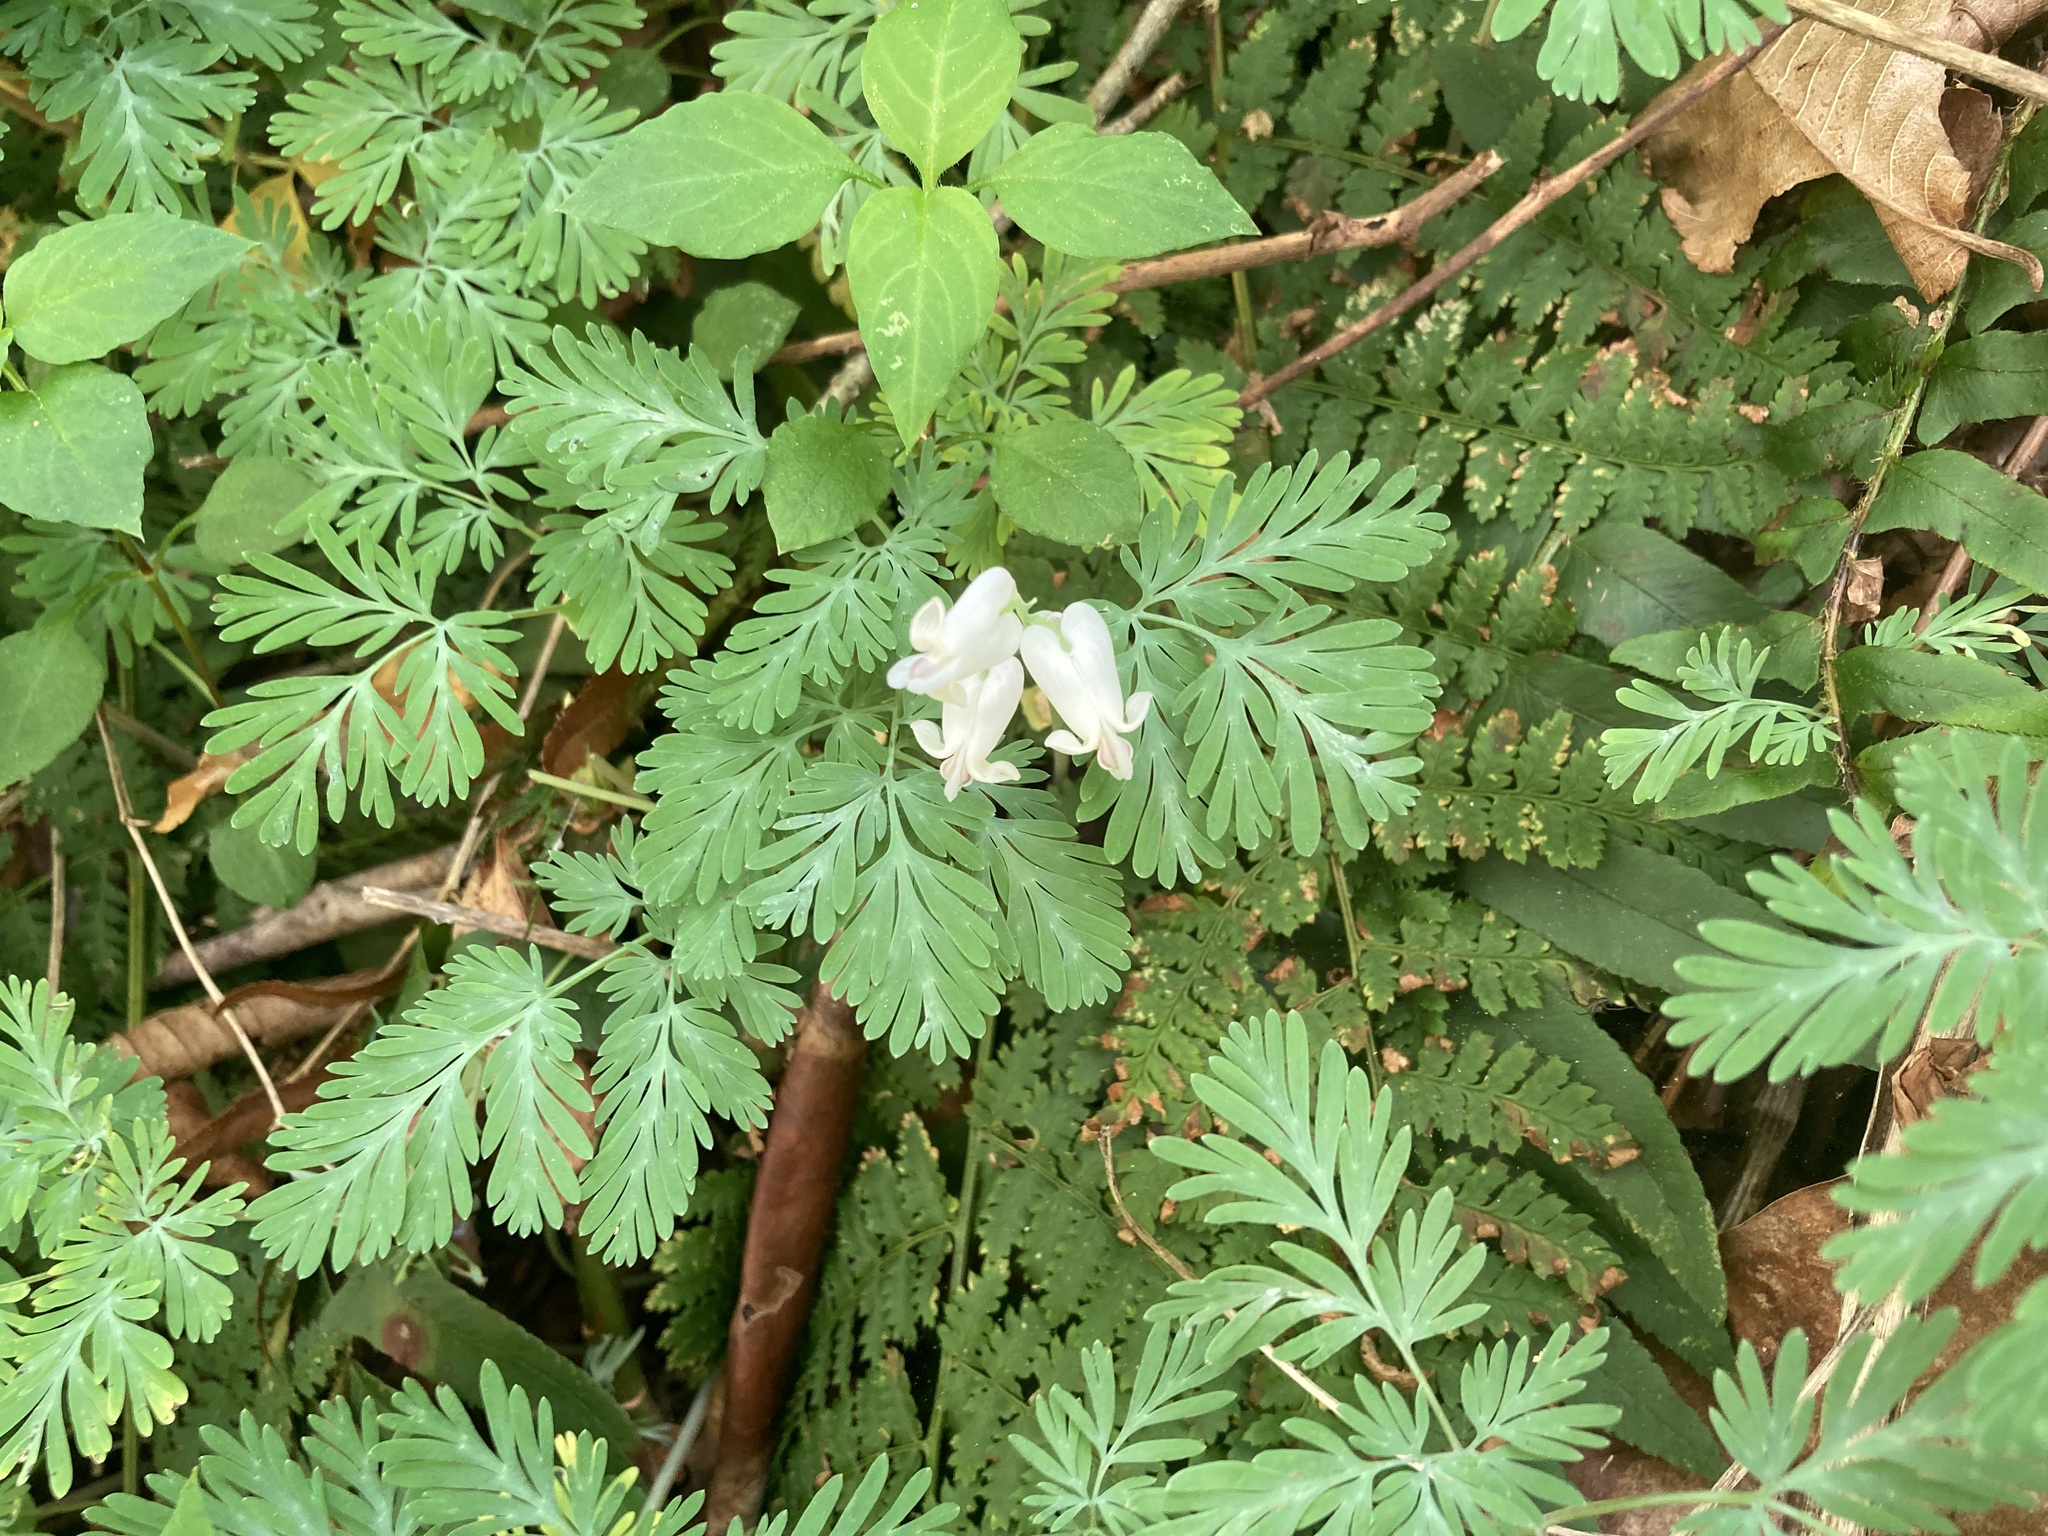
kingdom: Plantae
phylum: Tracheophyta
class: Magnoliopsida
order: Ranunculales
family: Papaveraceae
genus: Dicentra
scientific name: Dicentra canadensis
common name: Squirrel-corn
